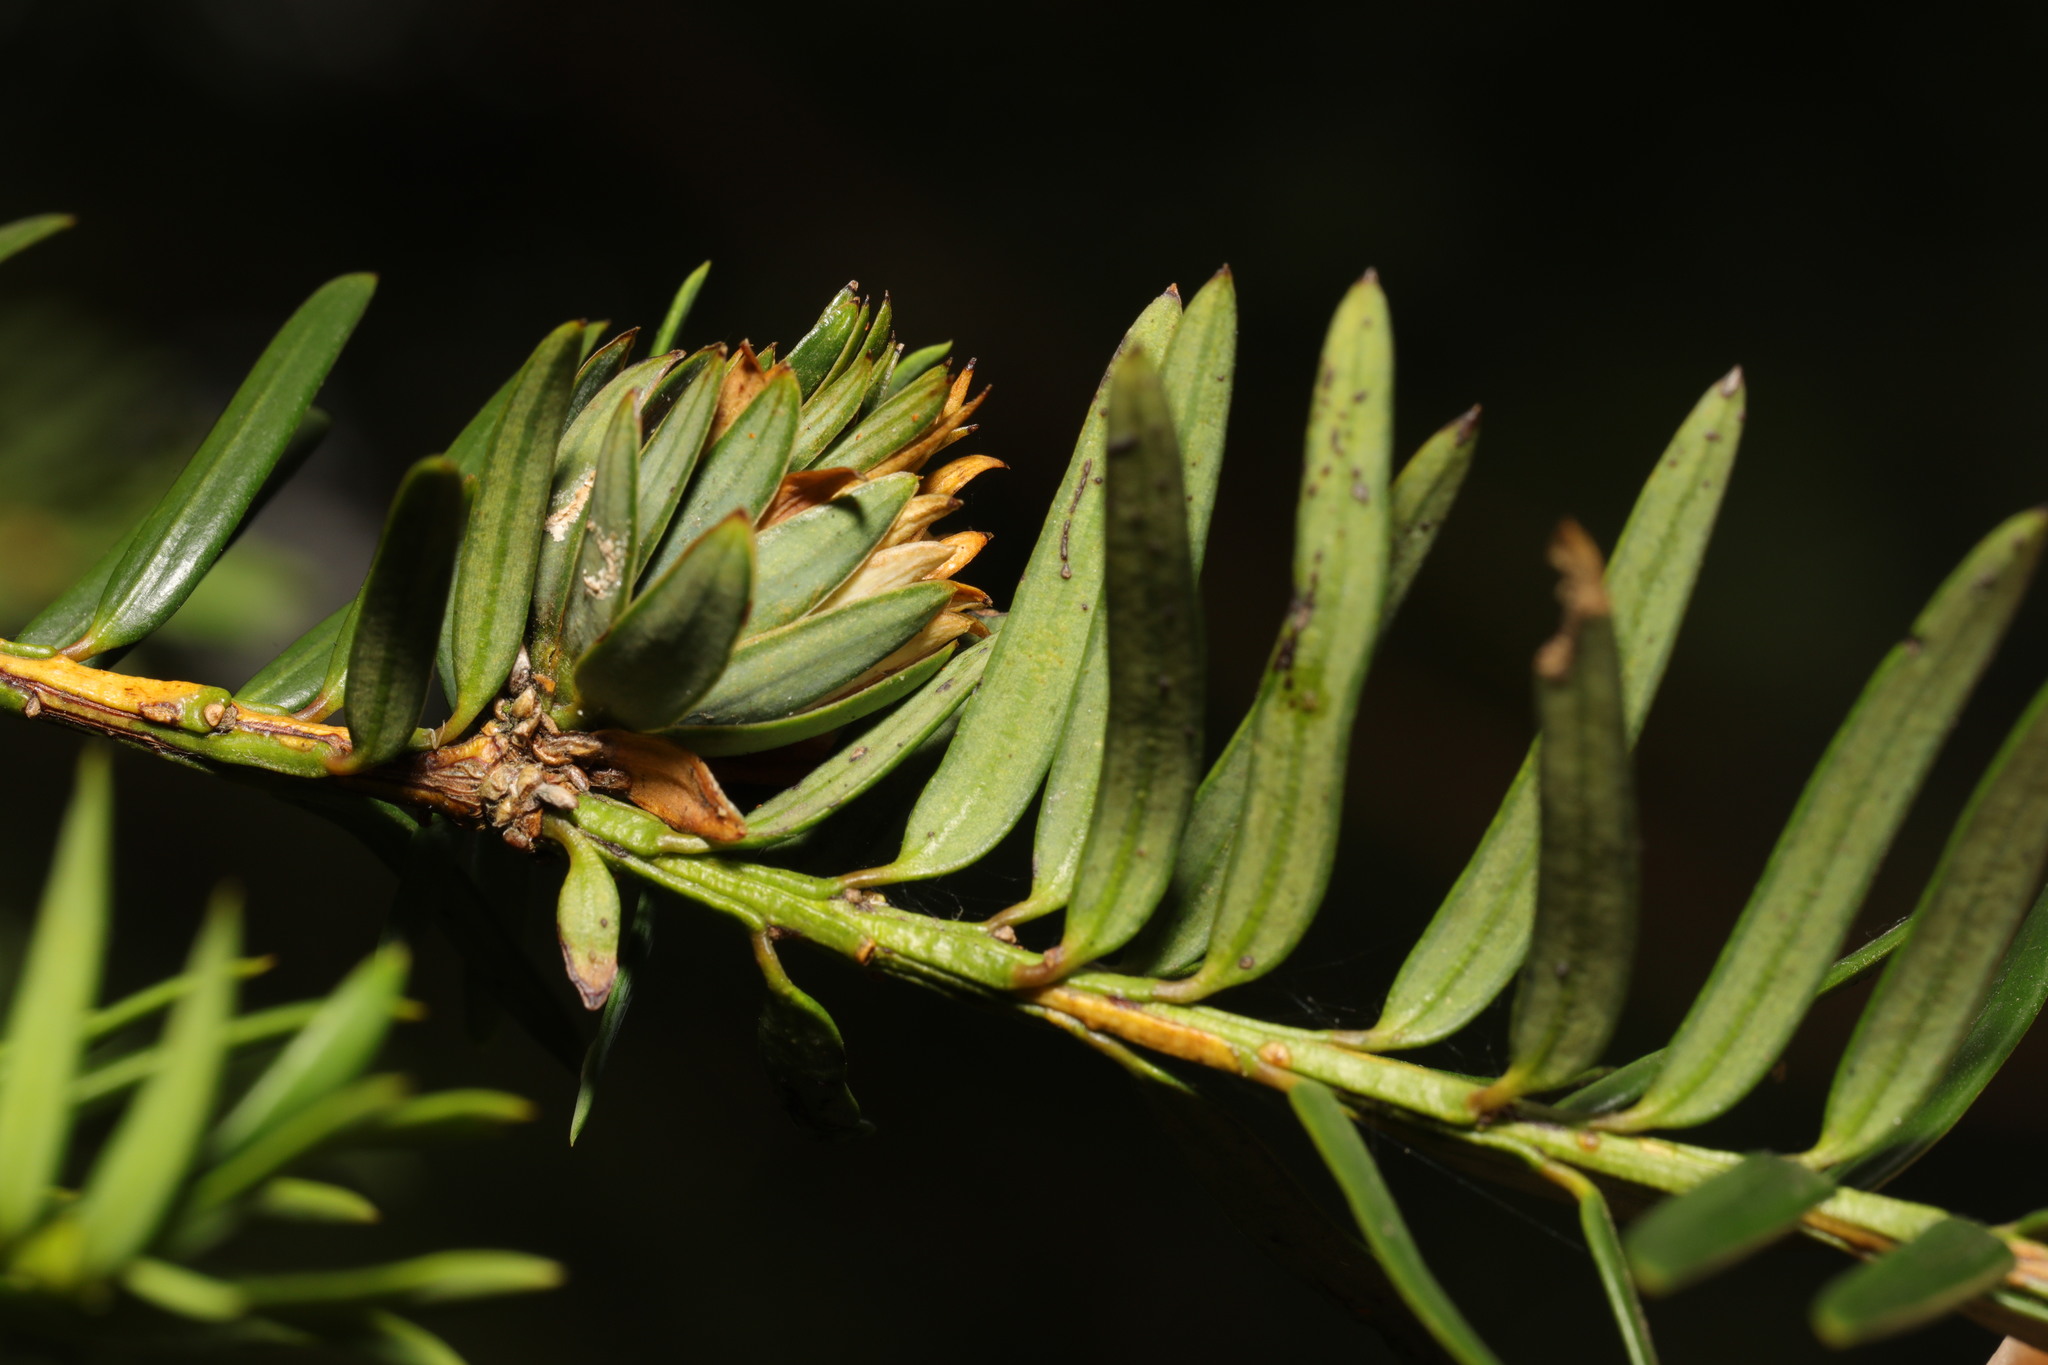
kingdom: Animalia
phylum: Arthropoda
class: Insecta
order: Diptera
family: Cecidomyiidae
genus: Taxomyia
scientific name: Taxomyia taxi
